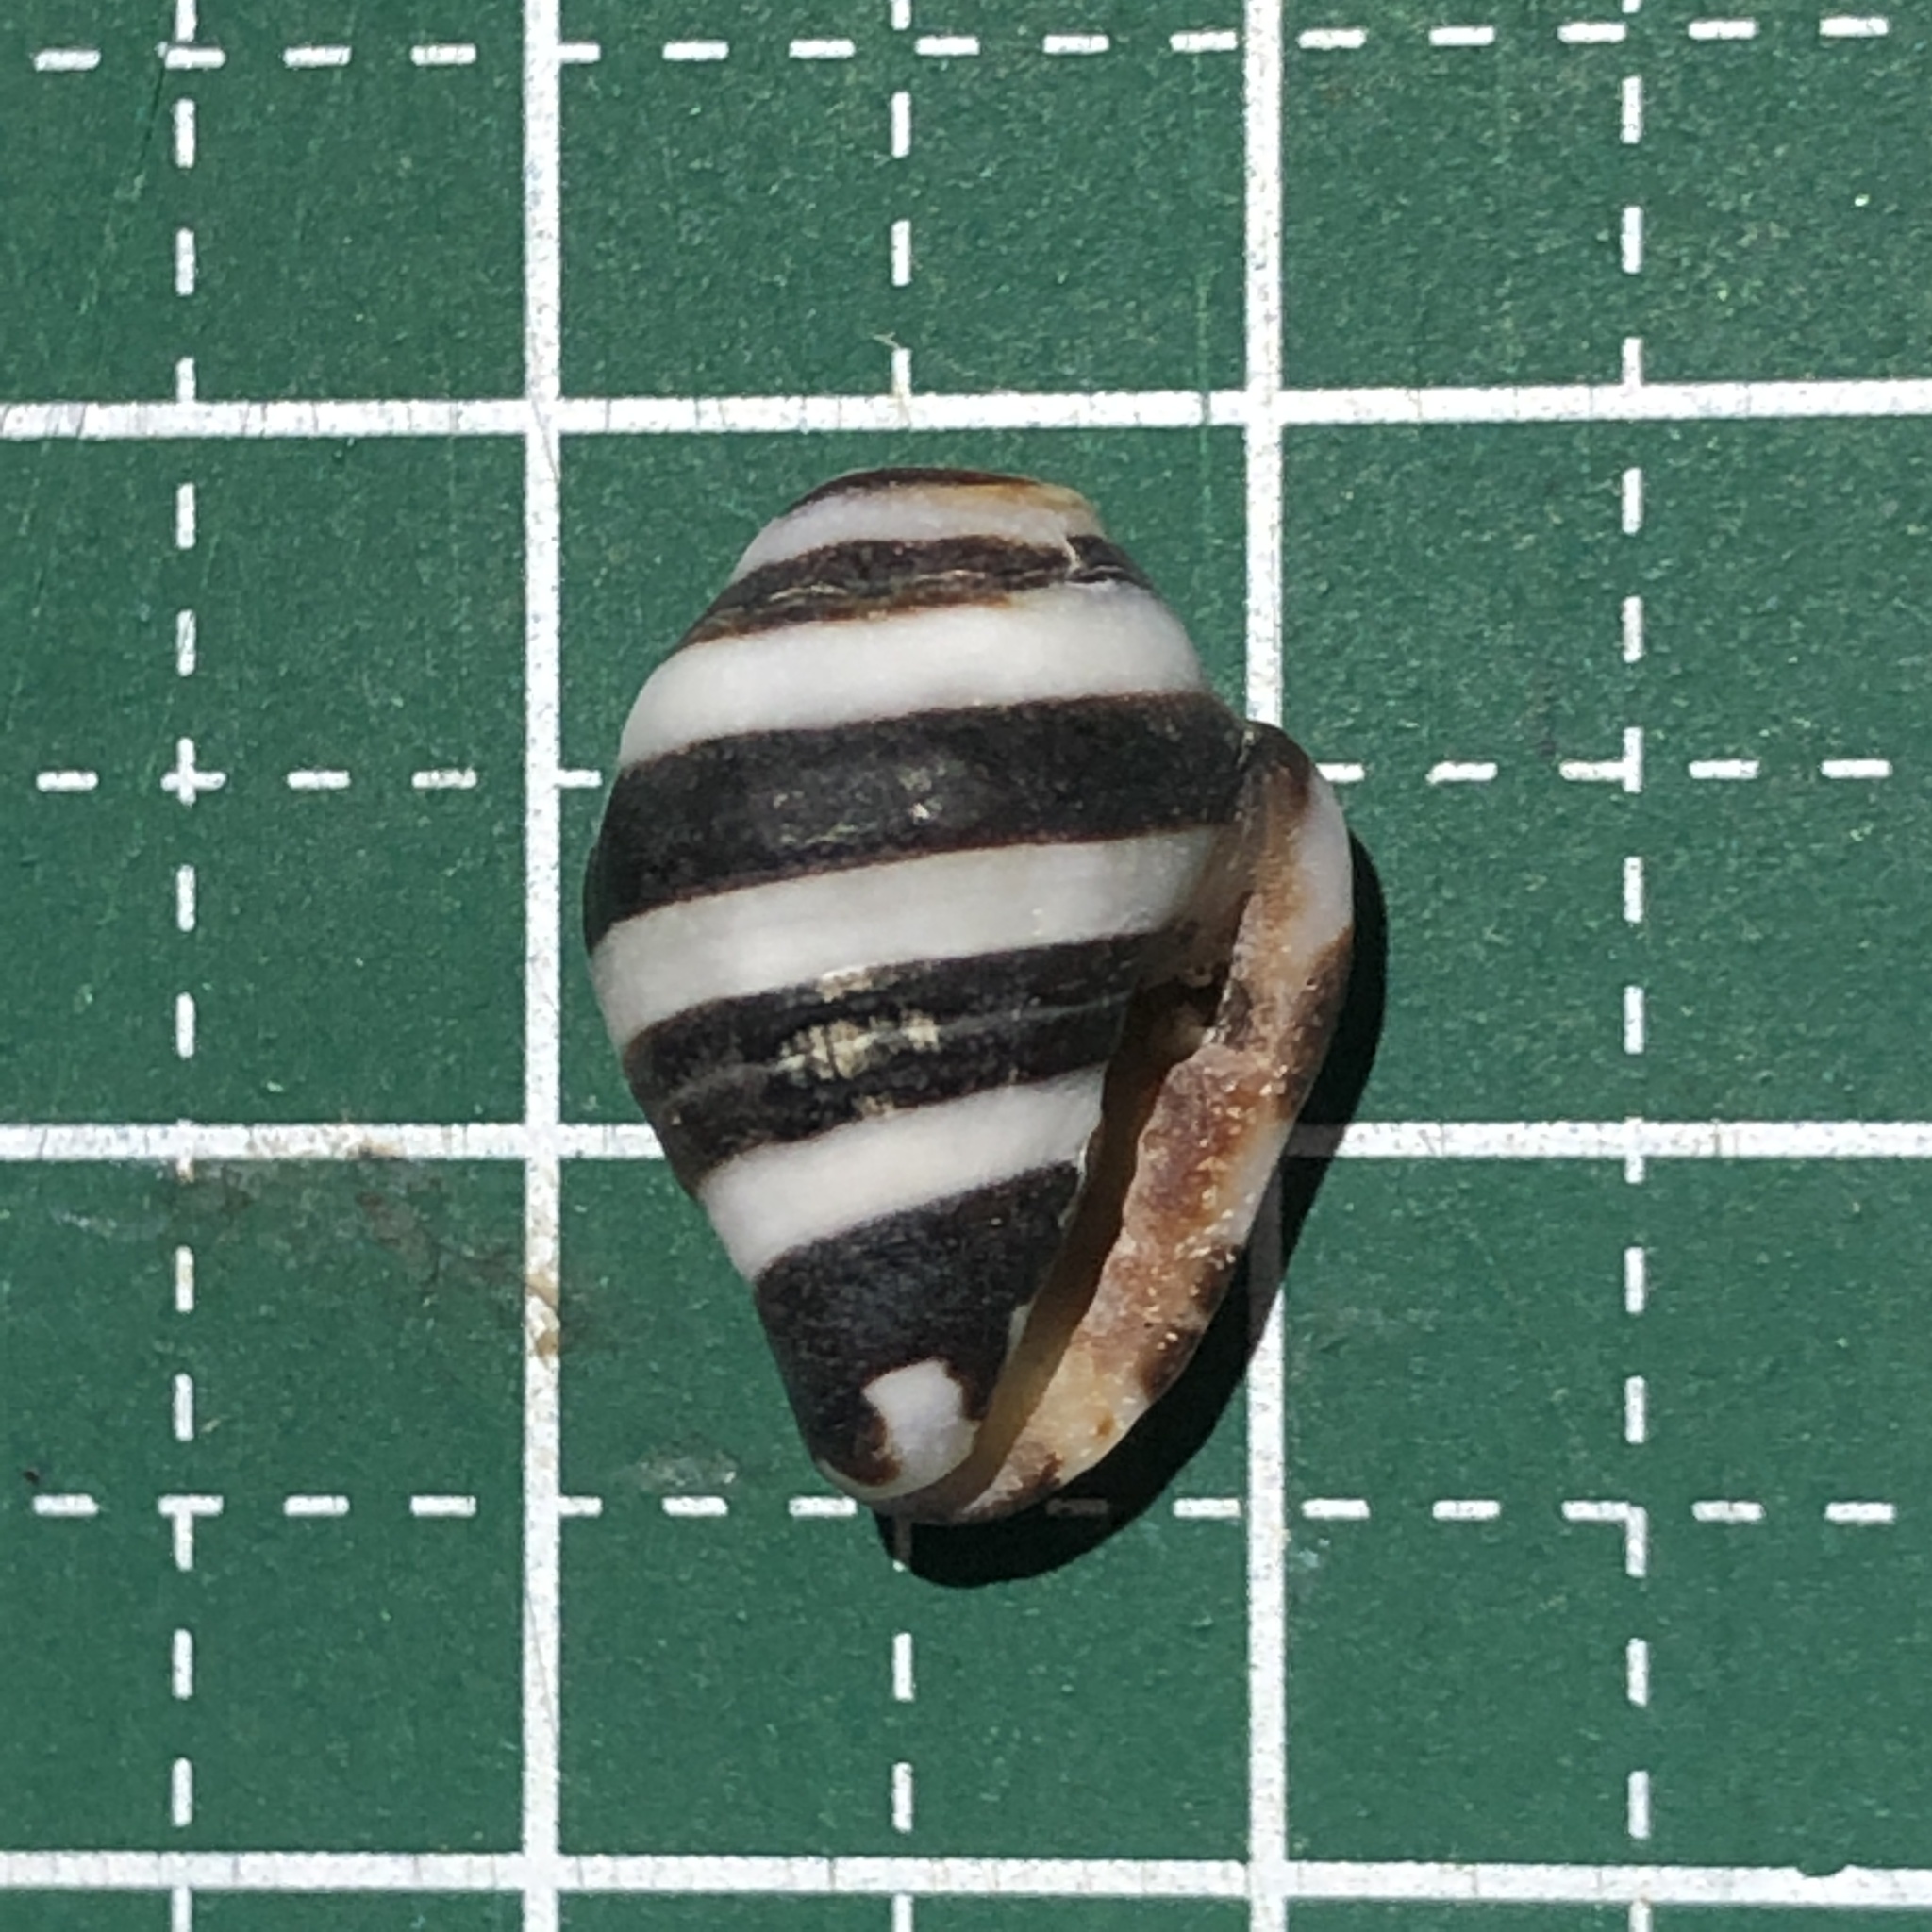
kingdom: Animalia
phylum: Mollusca
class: Gastropoda
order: Neogastropoda
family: Pisaniidae
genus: Engina
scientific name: Engina mendicaria
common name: Bumble bee snail
